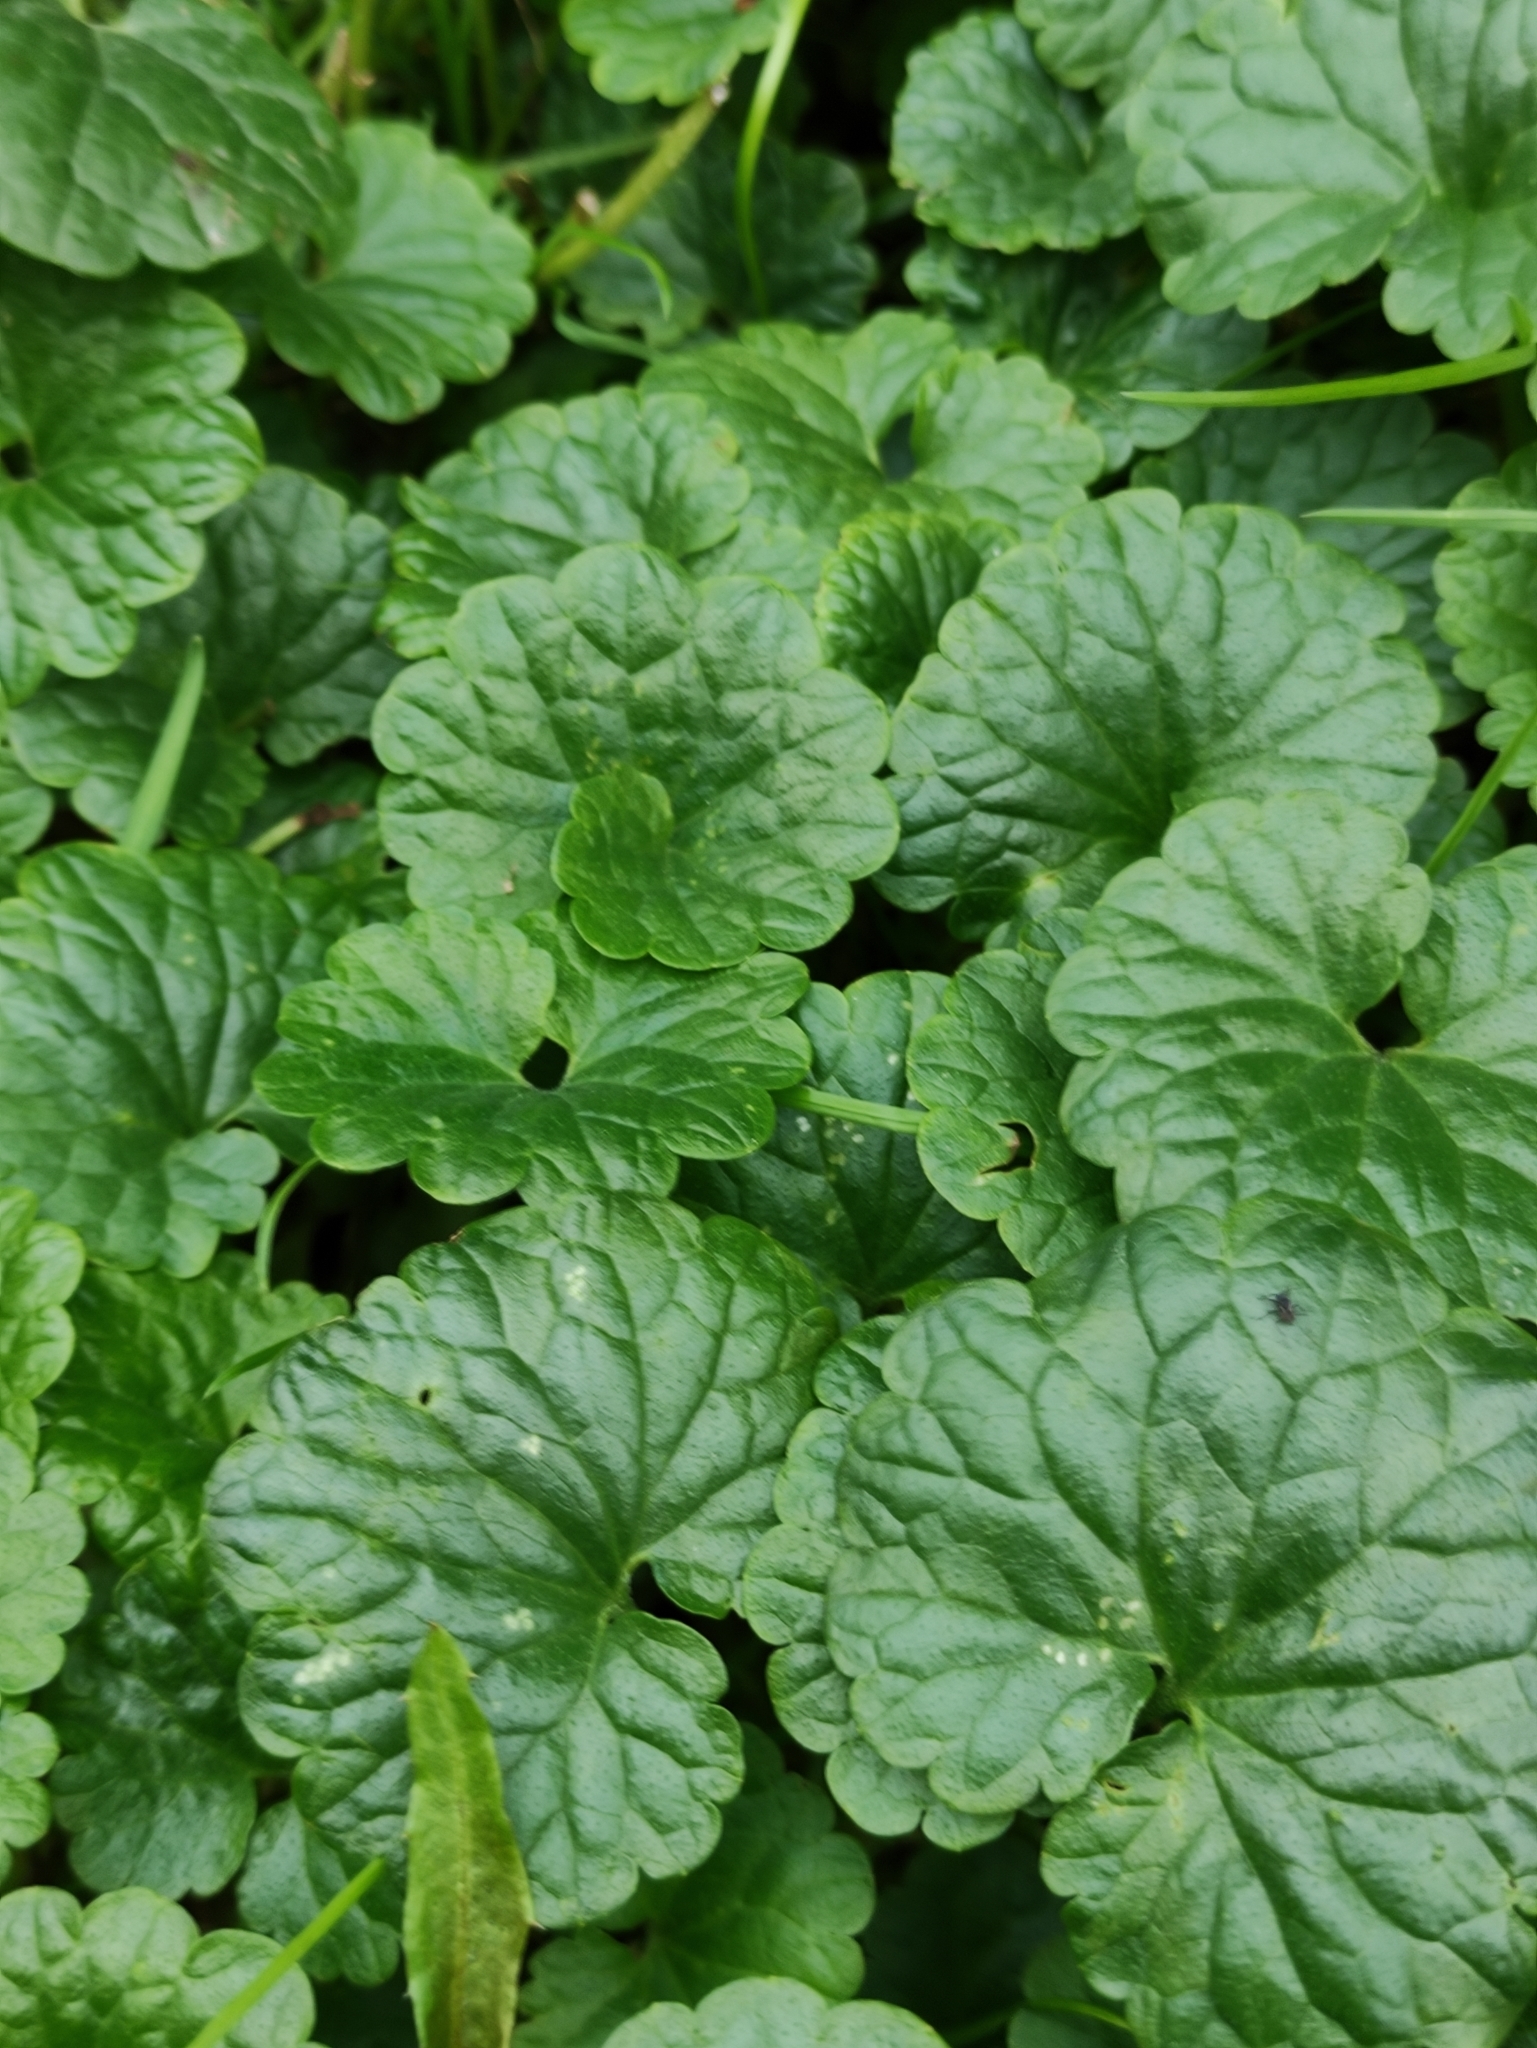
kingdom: Plantae
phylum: Tracheophyta
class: Magnoliopsida
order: Lamiales
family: Lamiaceae
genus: Glechoma
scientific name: Glechoma hederacea
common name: Ground ivy
